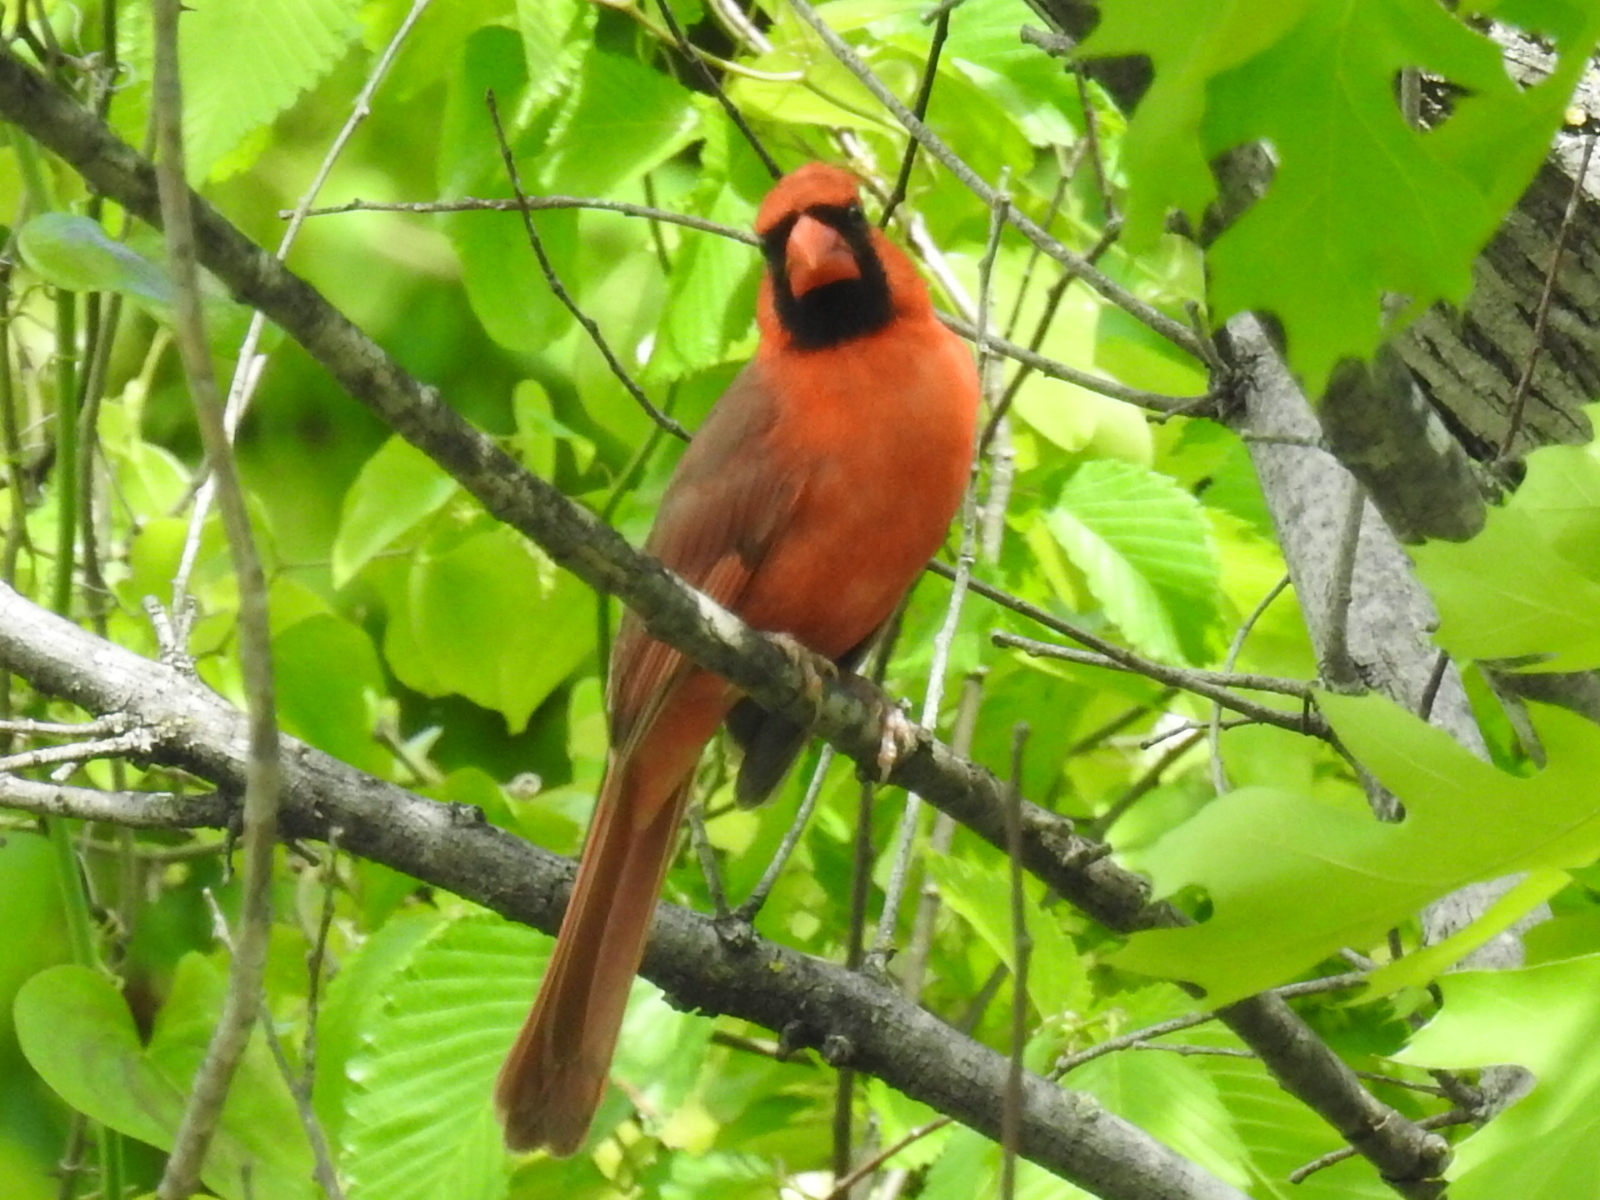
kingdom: Animalia
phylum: Chordata
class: Aves
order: Passeriformes
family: Cardinalidae
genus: Cardinalis
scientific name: Cardinalis cardinalis
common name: Northern cardinal
